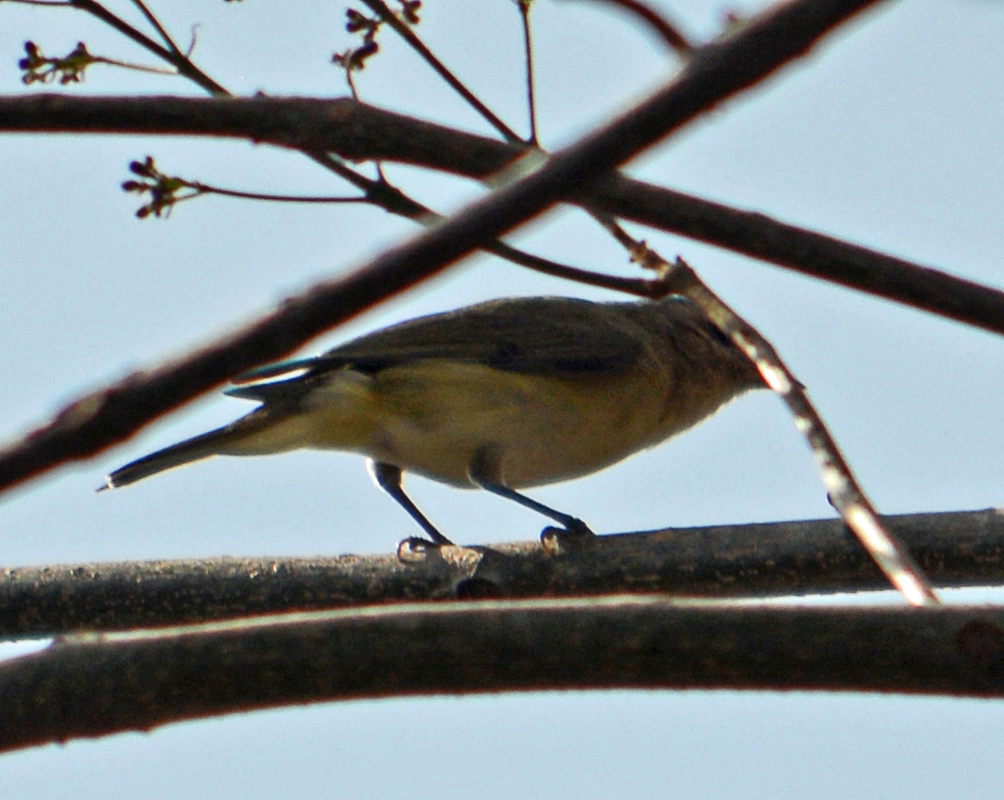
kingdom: Animalia
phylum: Chordata
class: Aves
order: Passeriformes
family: Vireonidae
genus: Vireo
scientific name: Vireo gilvus
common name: Warbling vireo
